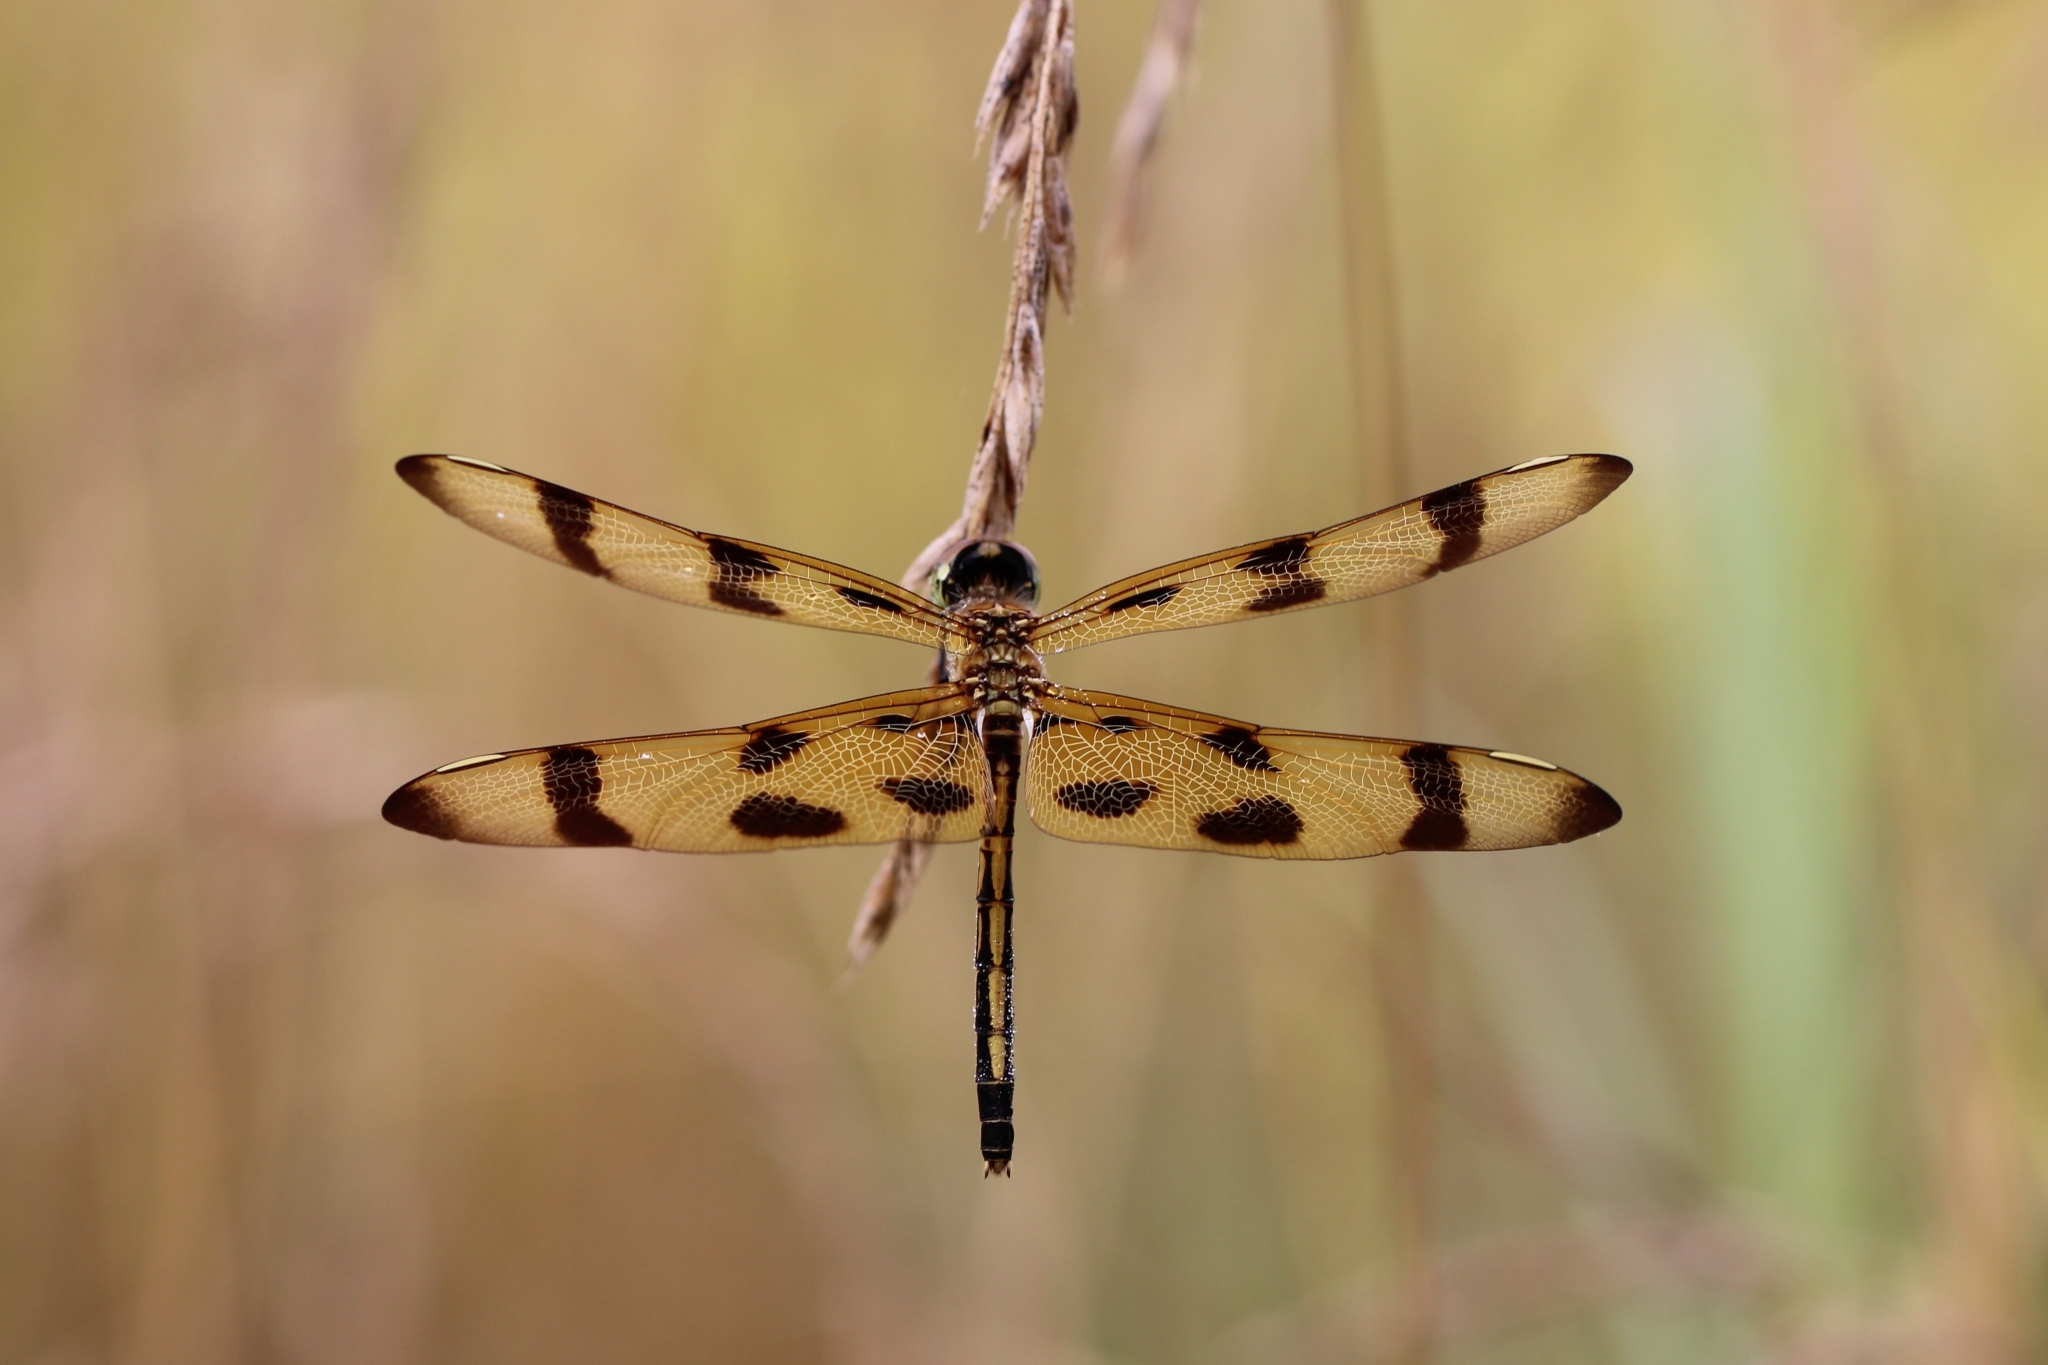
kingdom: Animalia
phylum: Arthropoda
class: Insecta
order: Odonata
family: Libellulidae
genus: Celithemis
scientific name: Celithemis eponina
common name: Halloween pennant
